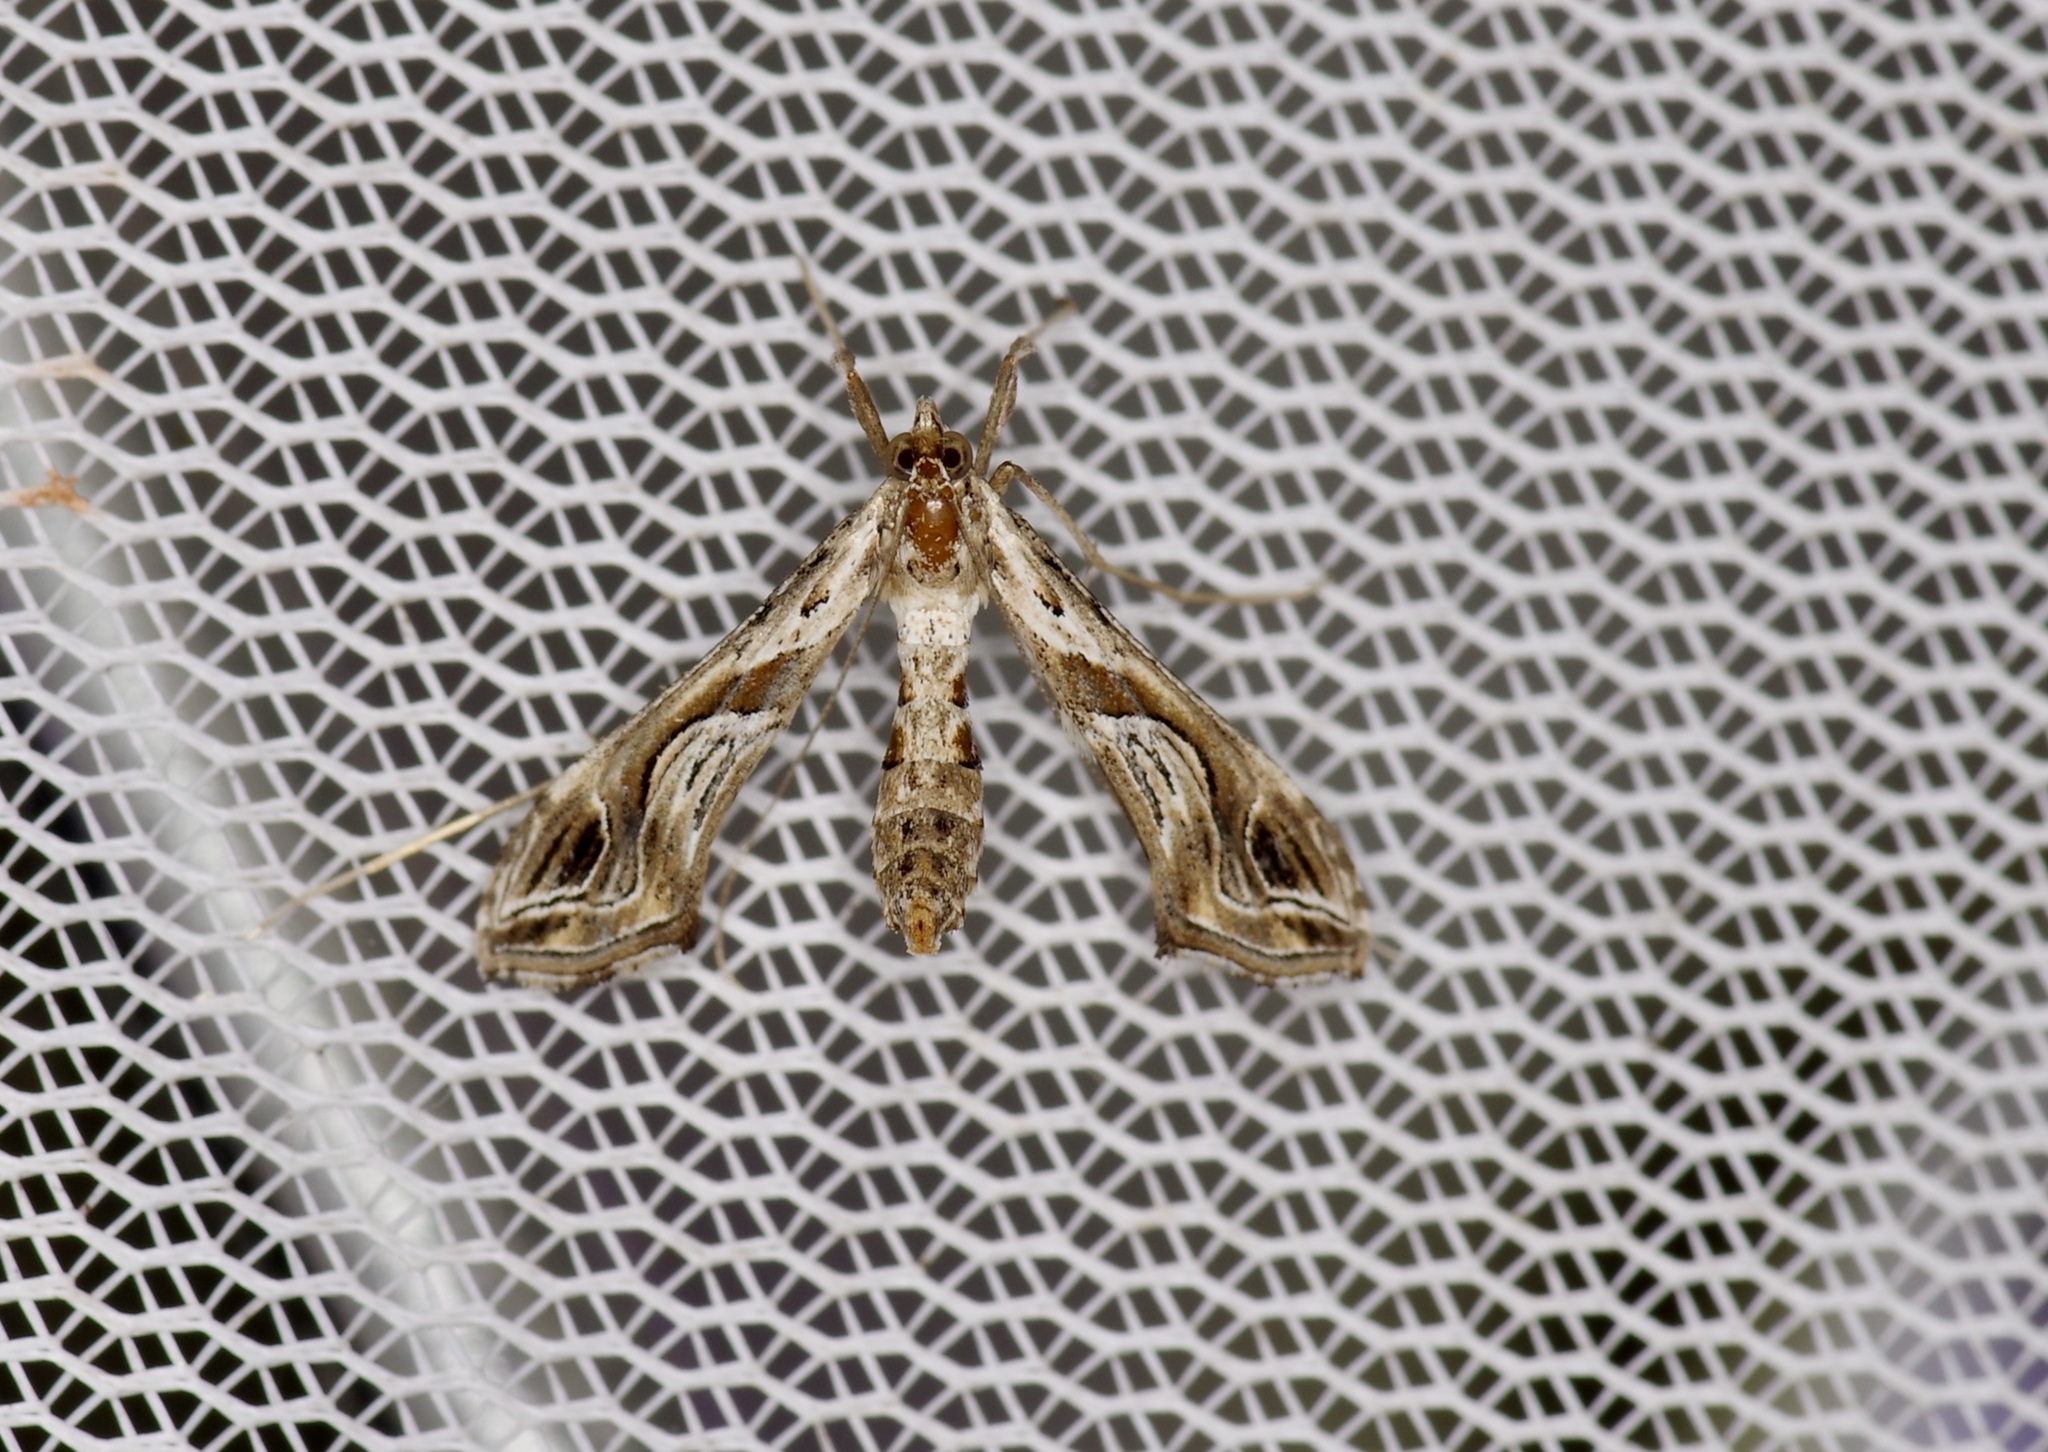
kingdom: Animalia
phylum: Arthropoda
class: Insecta
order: Lepidoptera
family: Crambidae
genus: Lineodes
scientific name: Lineodes integra
